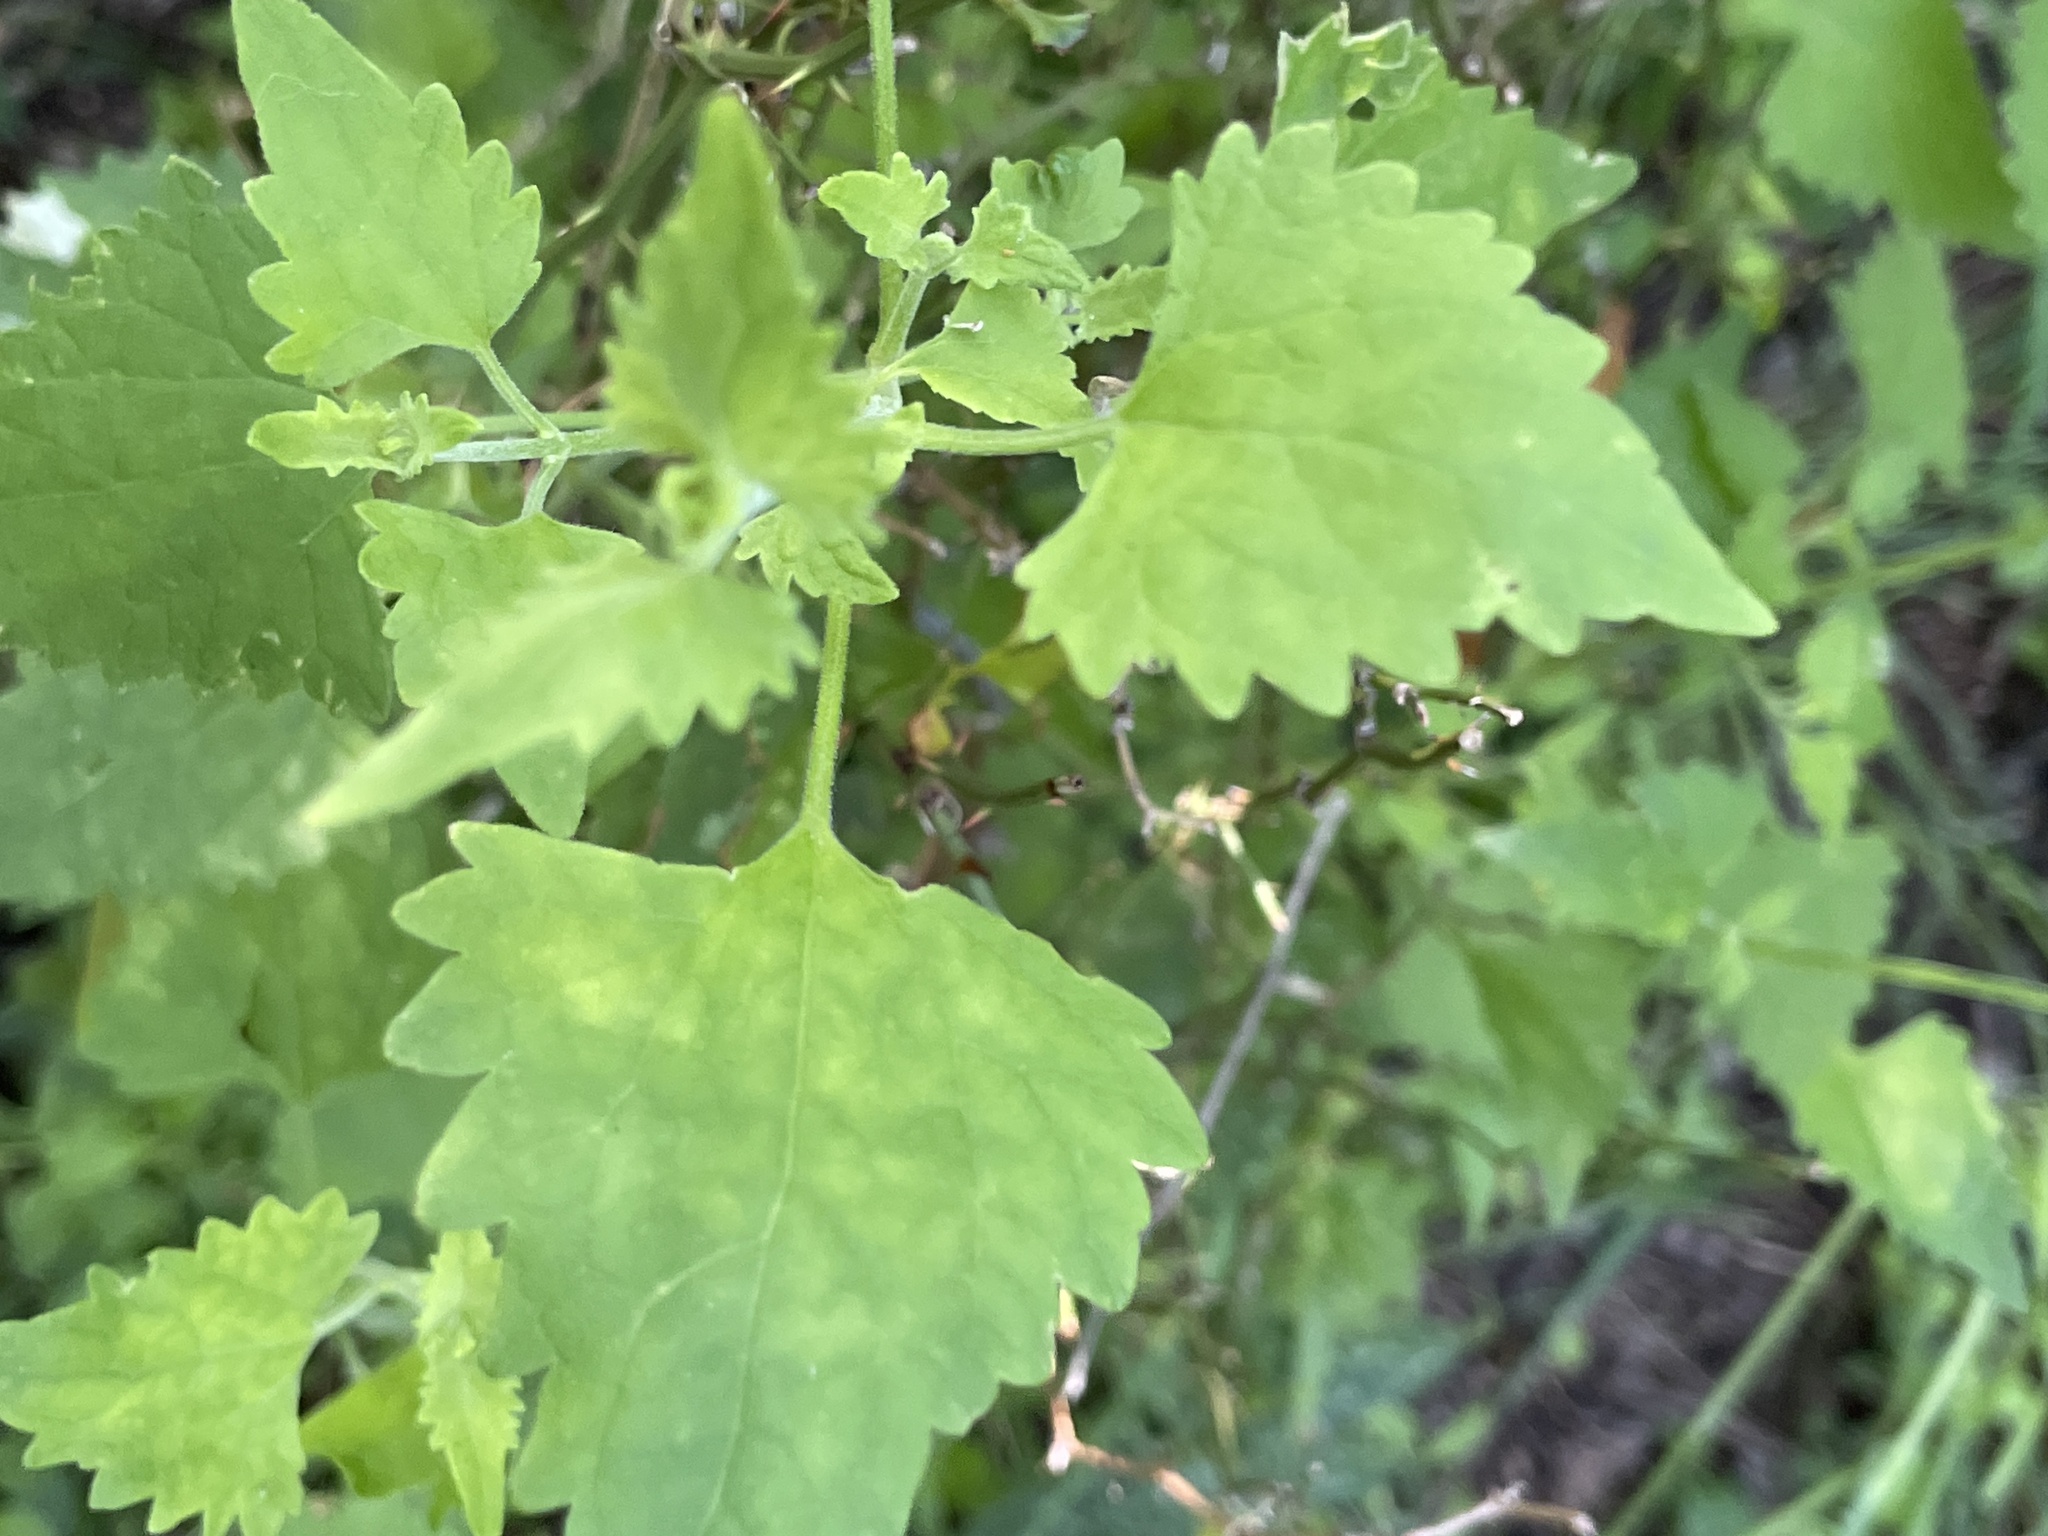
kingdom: Plantae
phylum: Tracheophyta
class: Magnoliopsida
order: Asterales
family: Asteraceae
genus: Fleischmannia
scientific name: Fleischmannia incarnata
